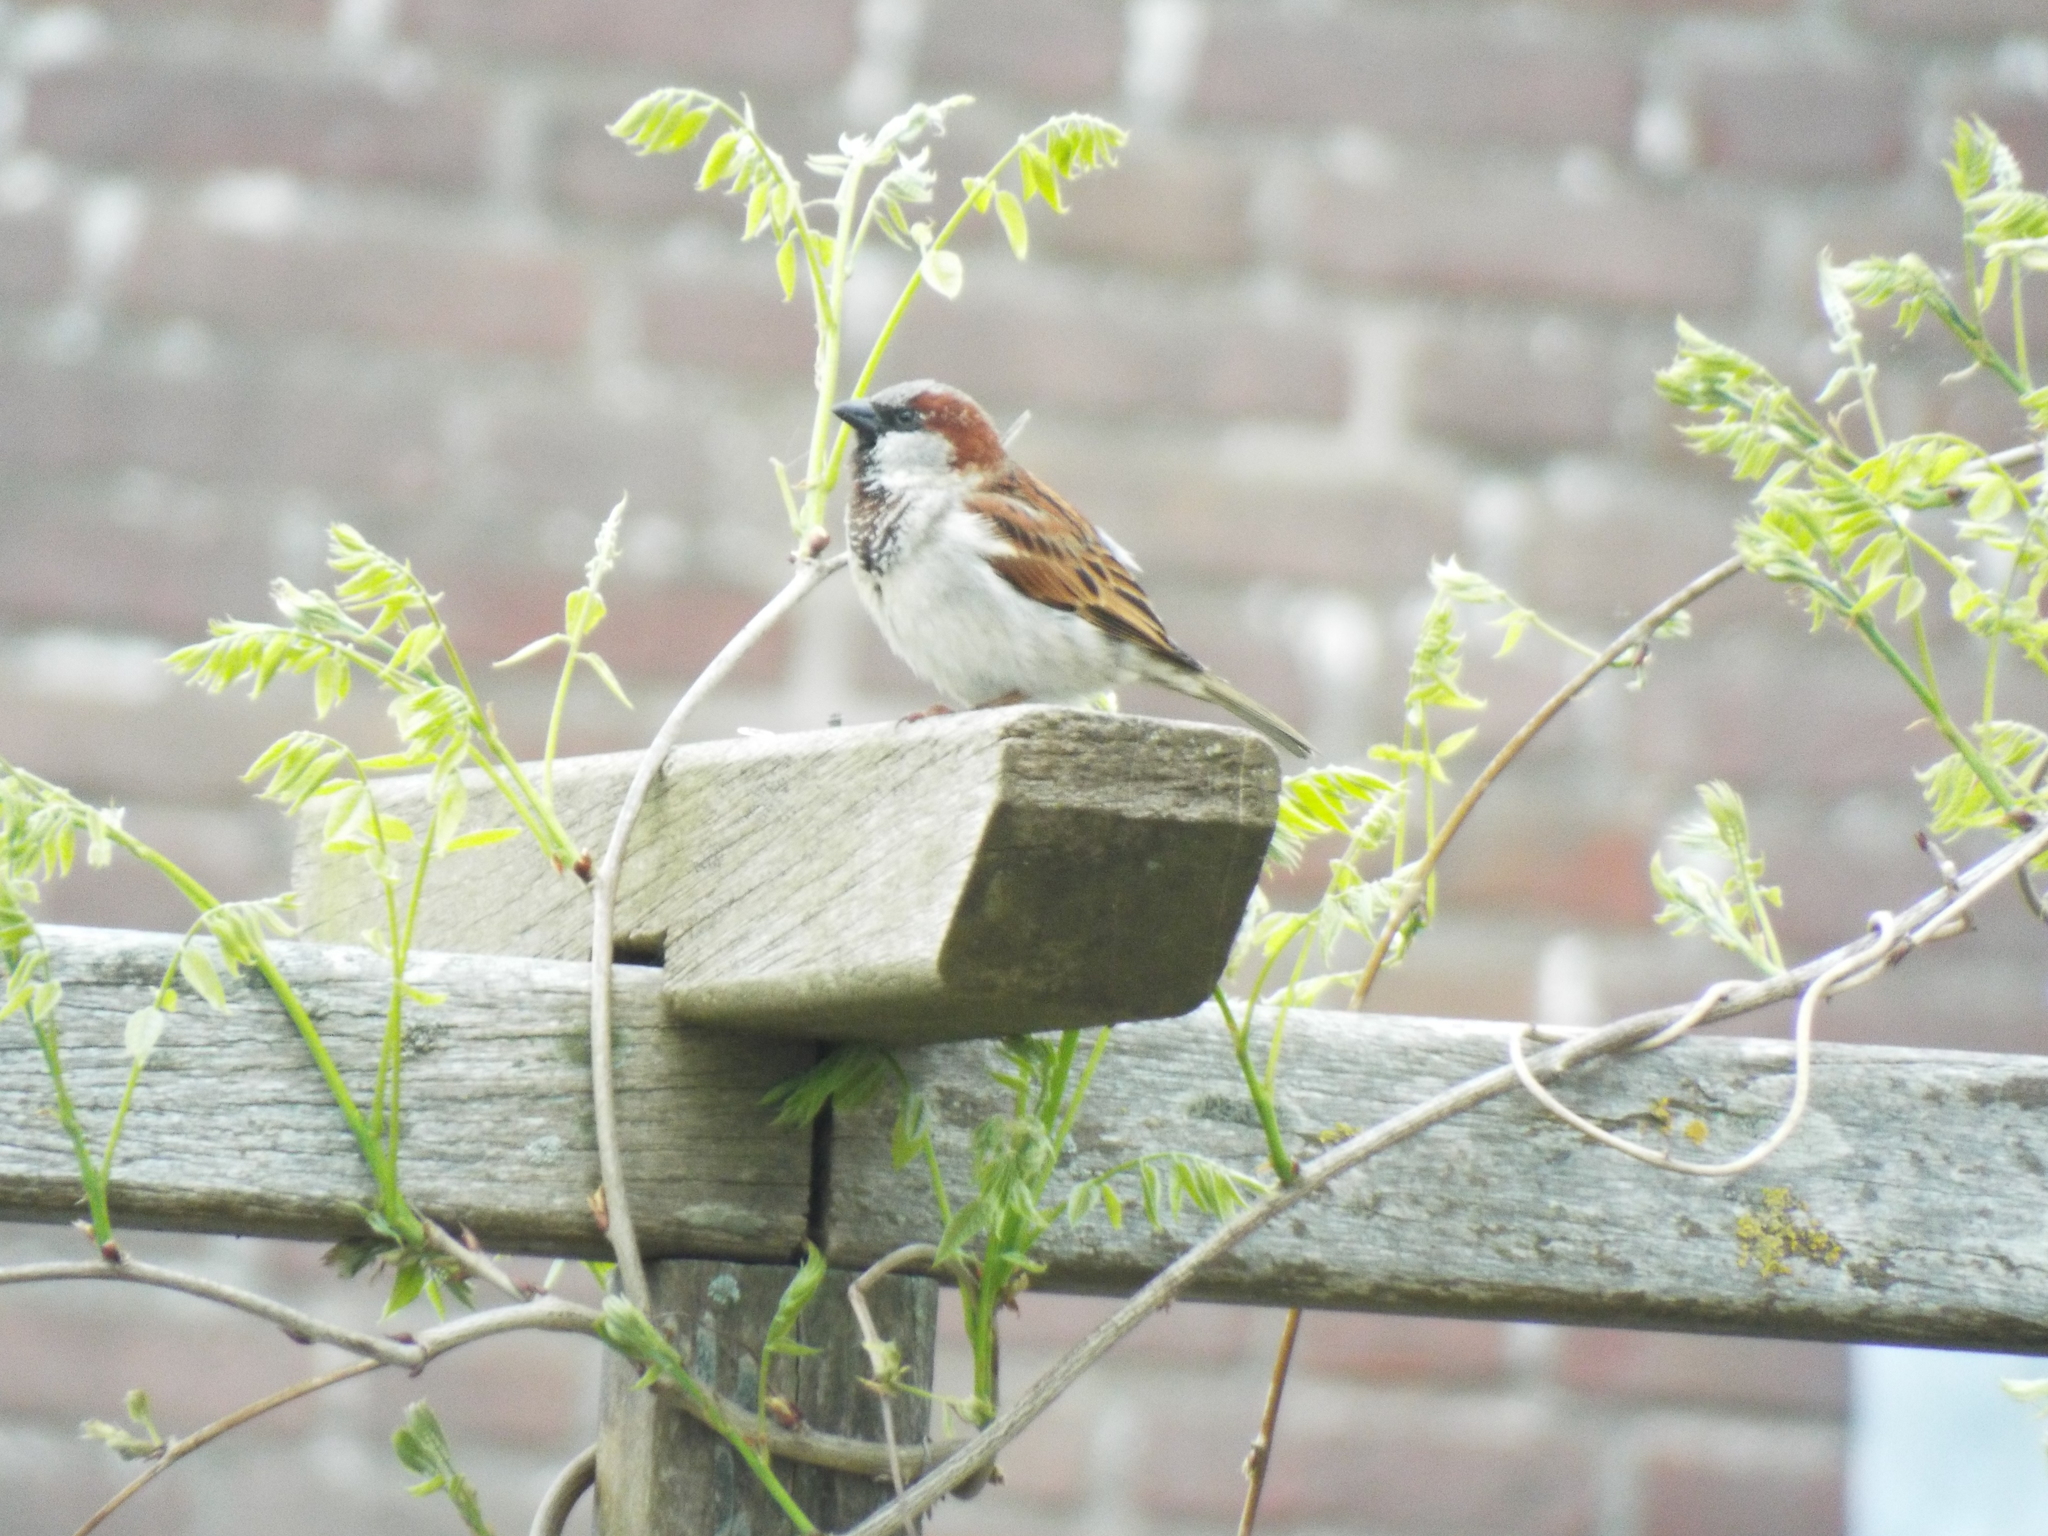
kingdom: Animalia
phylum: Chordata
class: Aves
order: Passeriformes
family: Passeridae
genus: Passer
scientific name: Passer domesticus
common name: House sparrow
